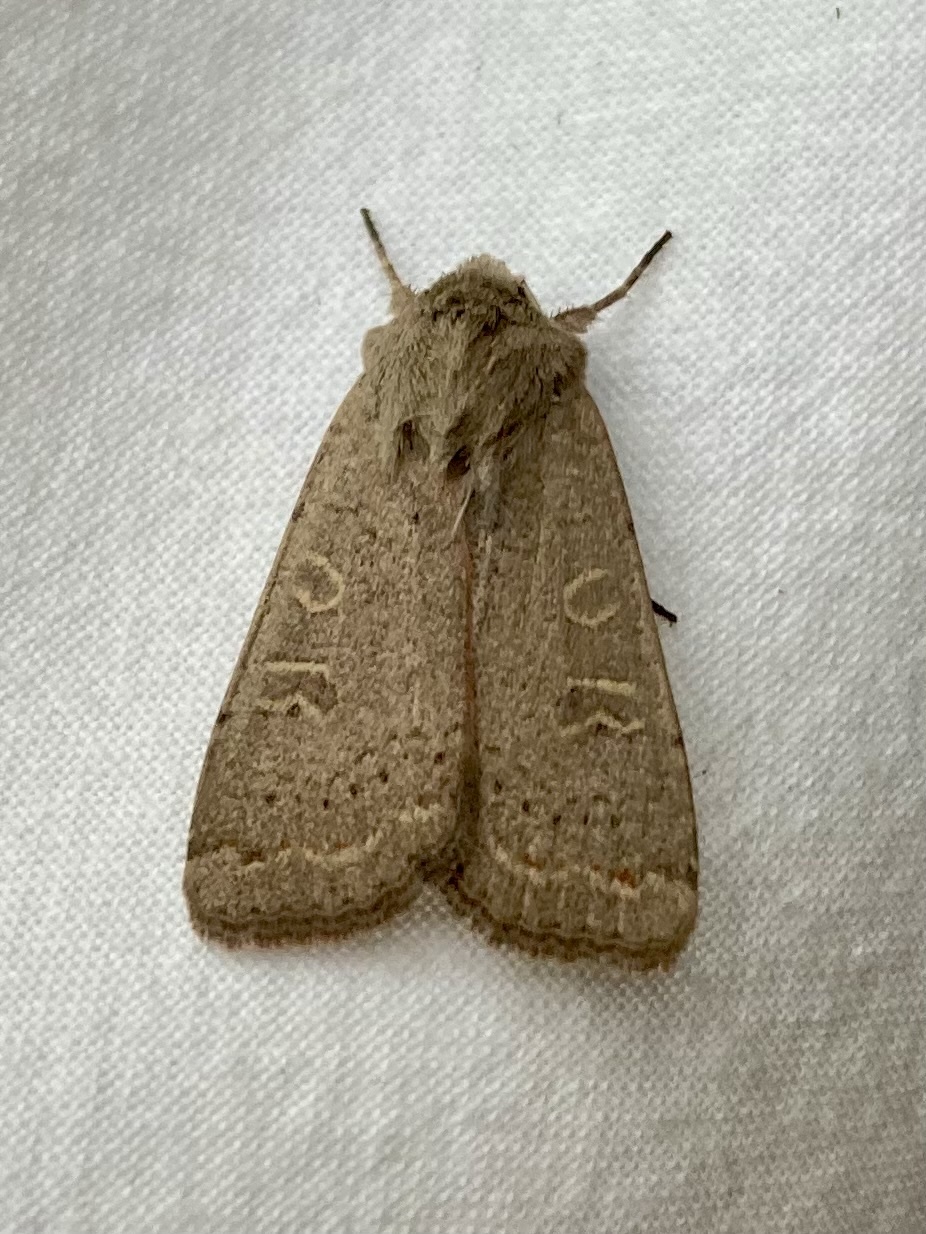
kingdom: Animalia
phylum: Arthropoda
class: Insecta
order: Lepidoptera
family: Noctuidae
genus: Xestia
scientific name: Xestia cohaesa
